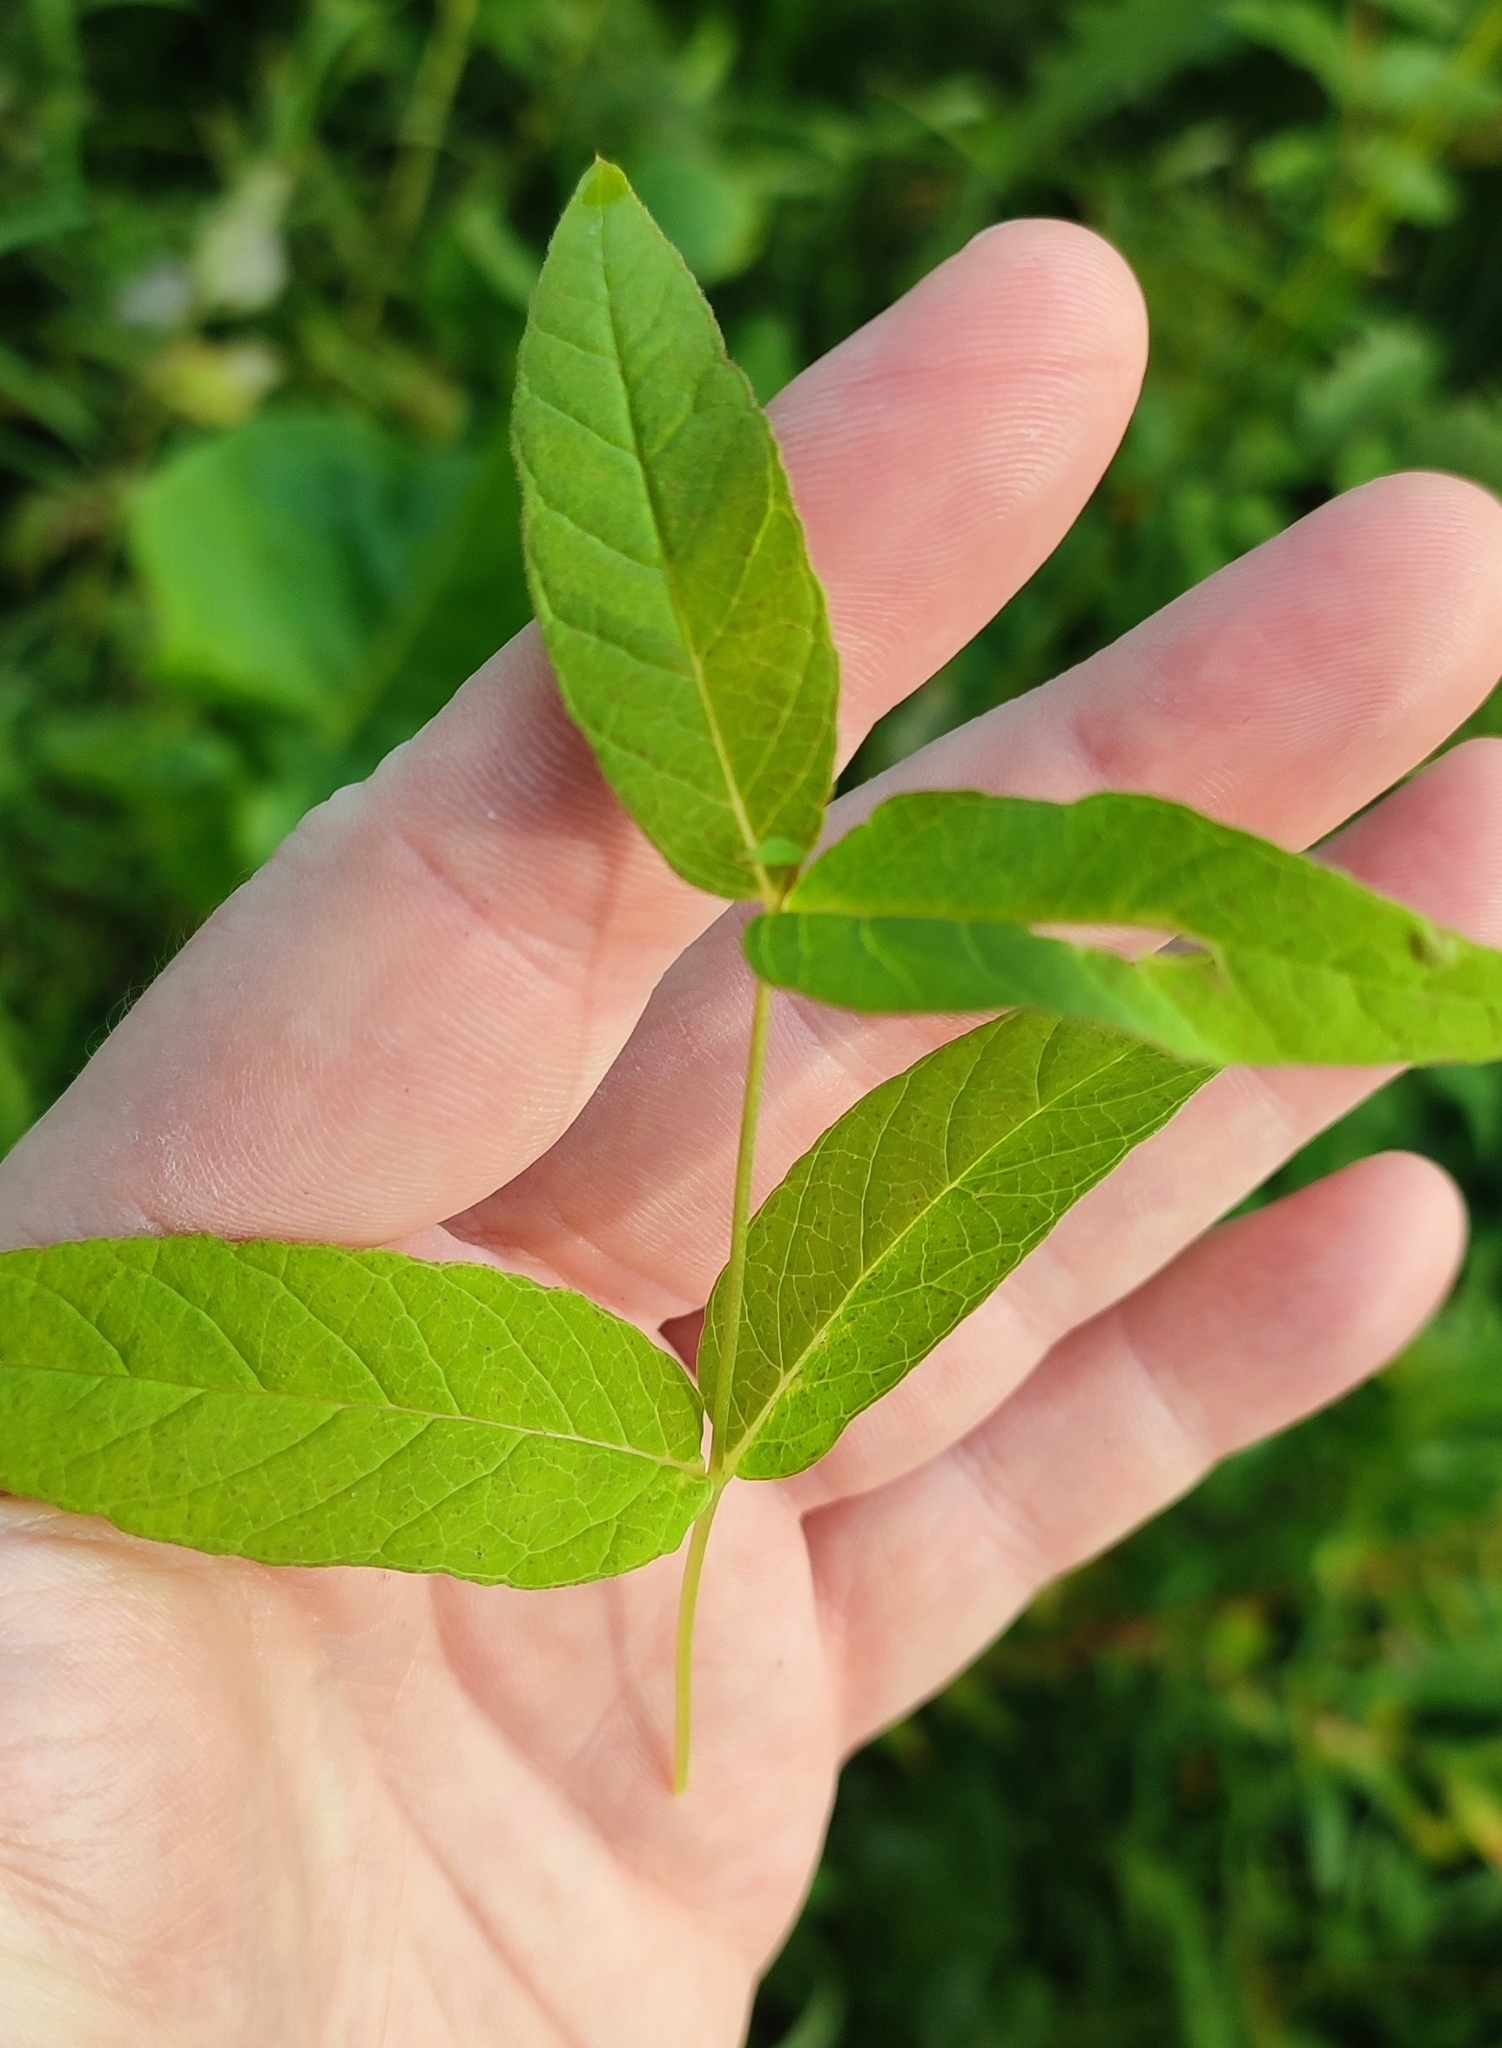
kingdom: Plantae
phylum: Tracheophyta
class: Magnoliopsida
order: Ericales
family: Primulaceae
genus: Lysimachia
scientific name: Lysimachia vulgaris
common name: Yellow loosestrife
